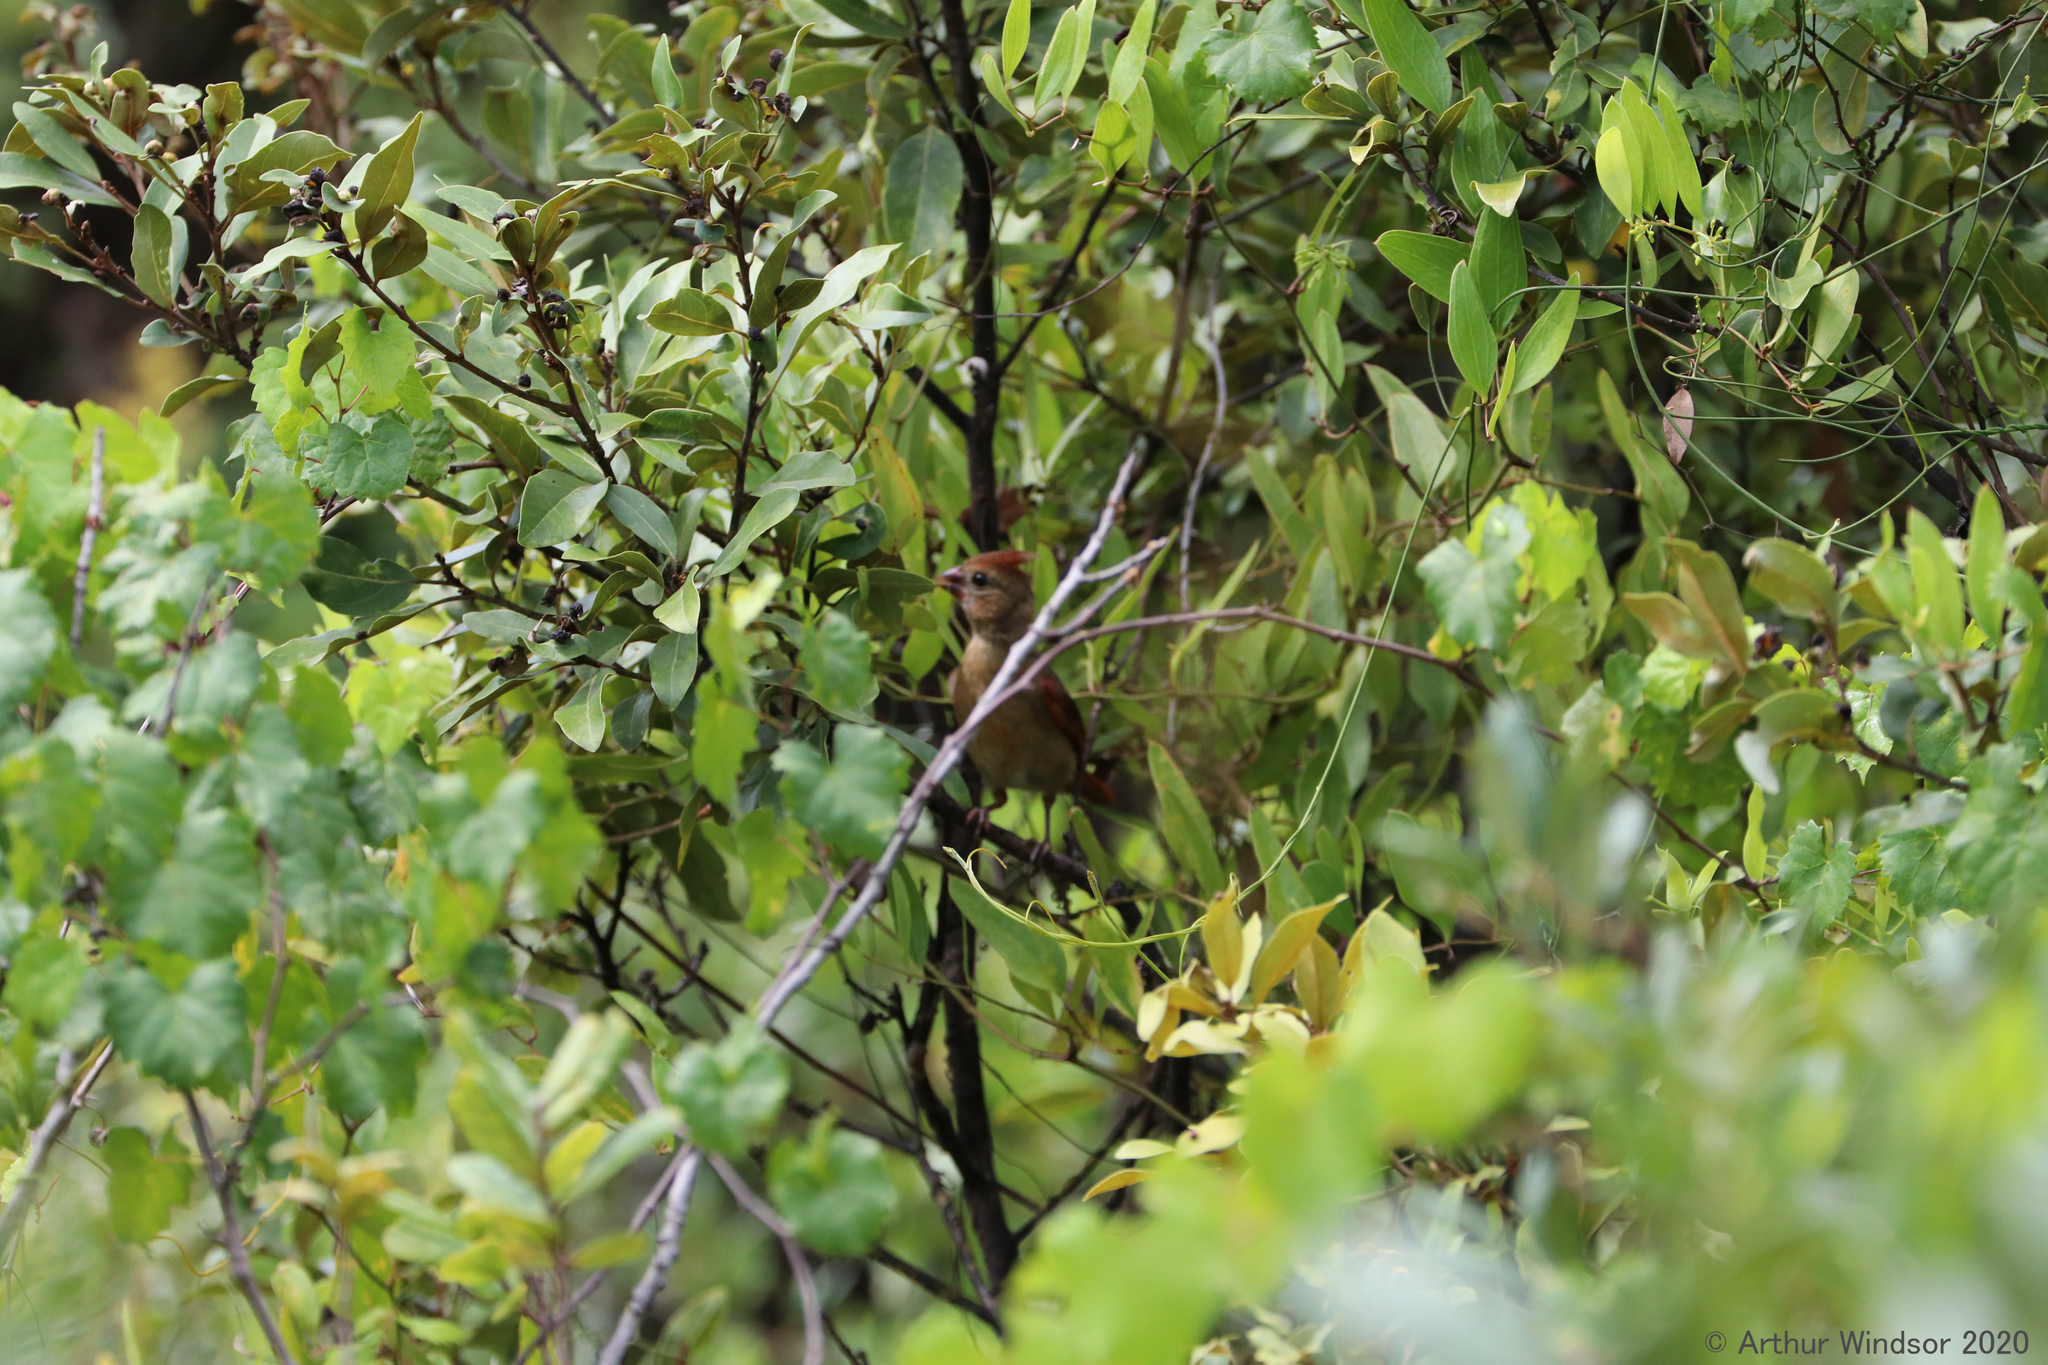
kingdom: Animalia
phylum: Chordata
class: Aves
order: Passeriformes
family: Cardinalidae
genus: Cardinalis
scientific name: Cardinalis cardinalis
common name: Northern cardinal
